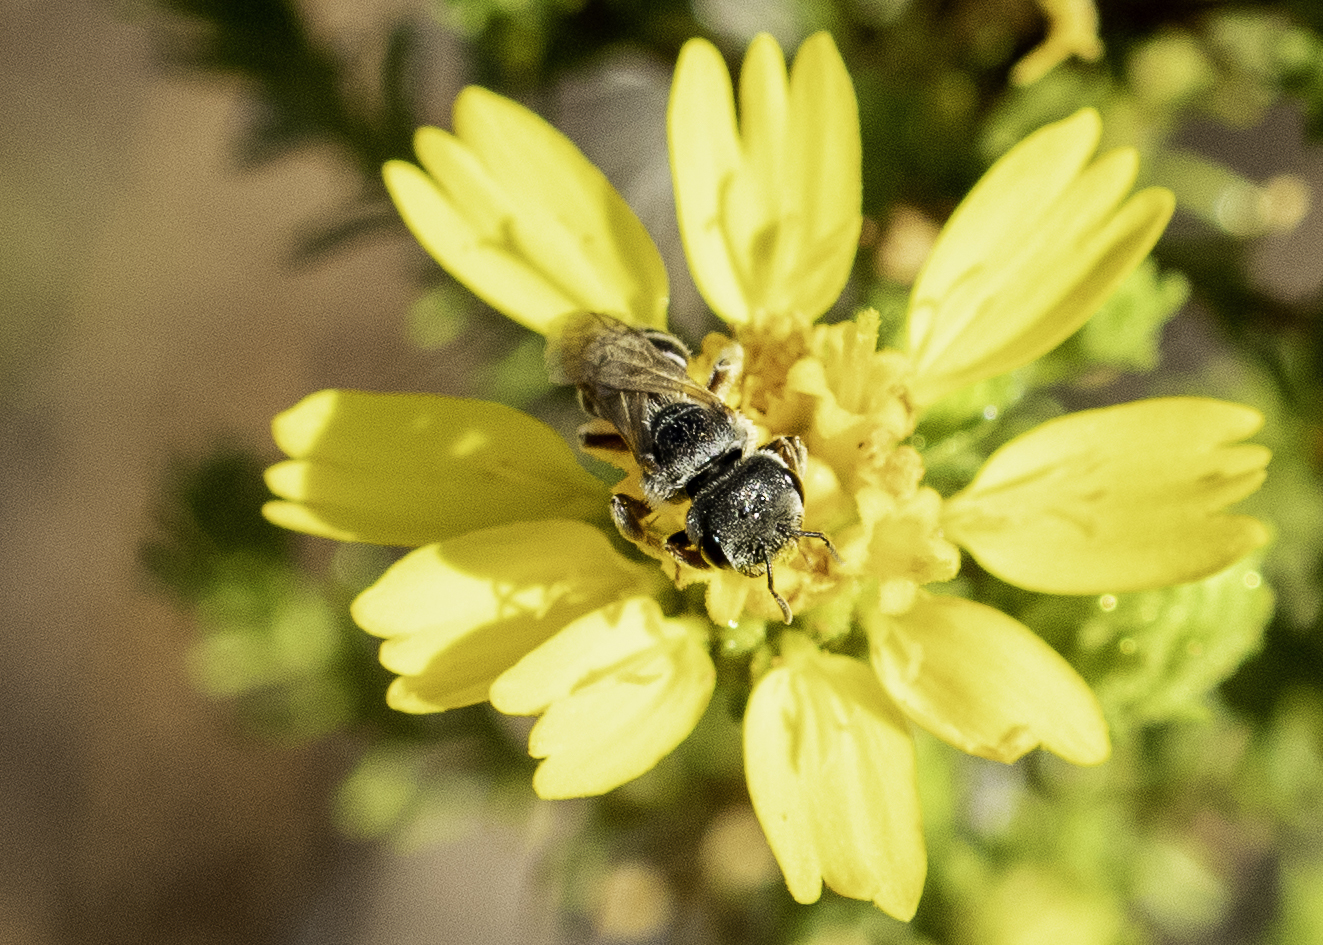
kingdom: Animalia
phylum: Arthropoda
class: Insecta
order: Hymenoptera
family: Halictidae
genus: Halictus
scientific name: Halictus ligatus
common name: Ligated furrow bee
